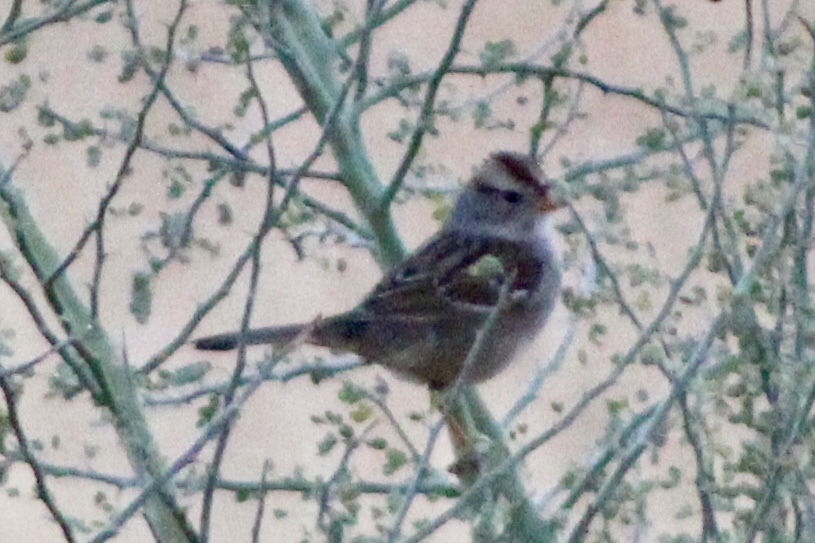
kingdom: Animalia
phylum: Chordata
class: Aves
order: Passeriformes
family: Passerellidae
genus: Zonotrichia
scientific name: Zonotrichia leucophrys
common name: White-crowned sparrow
